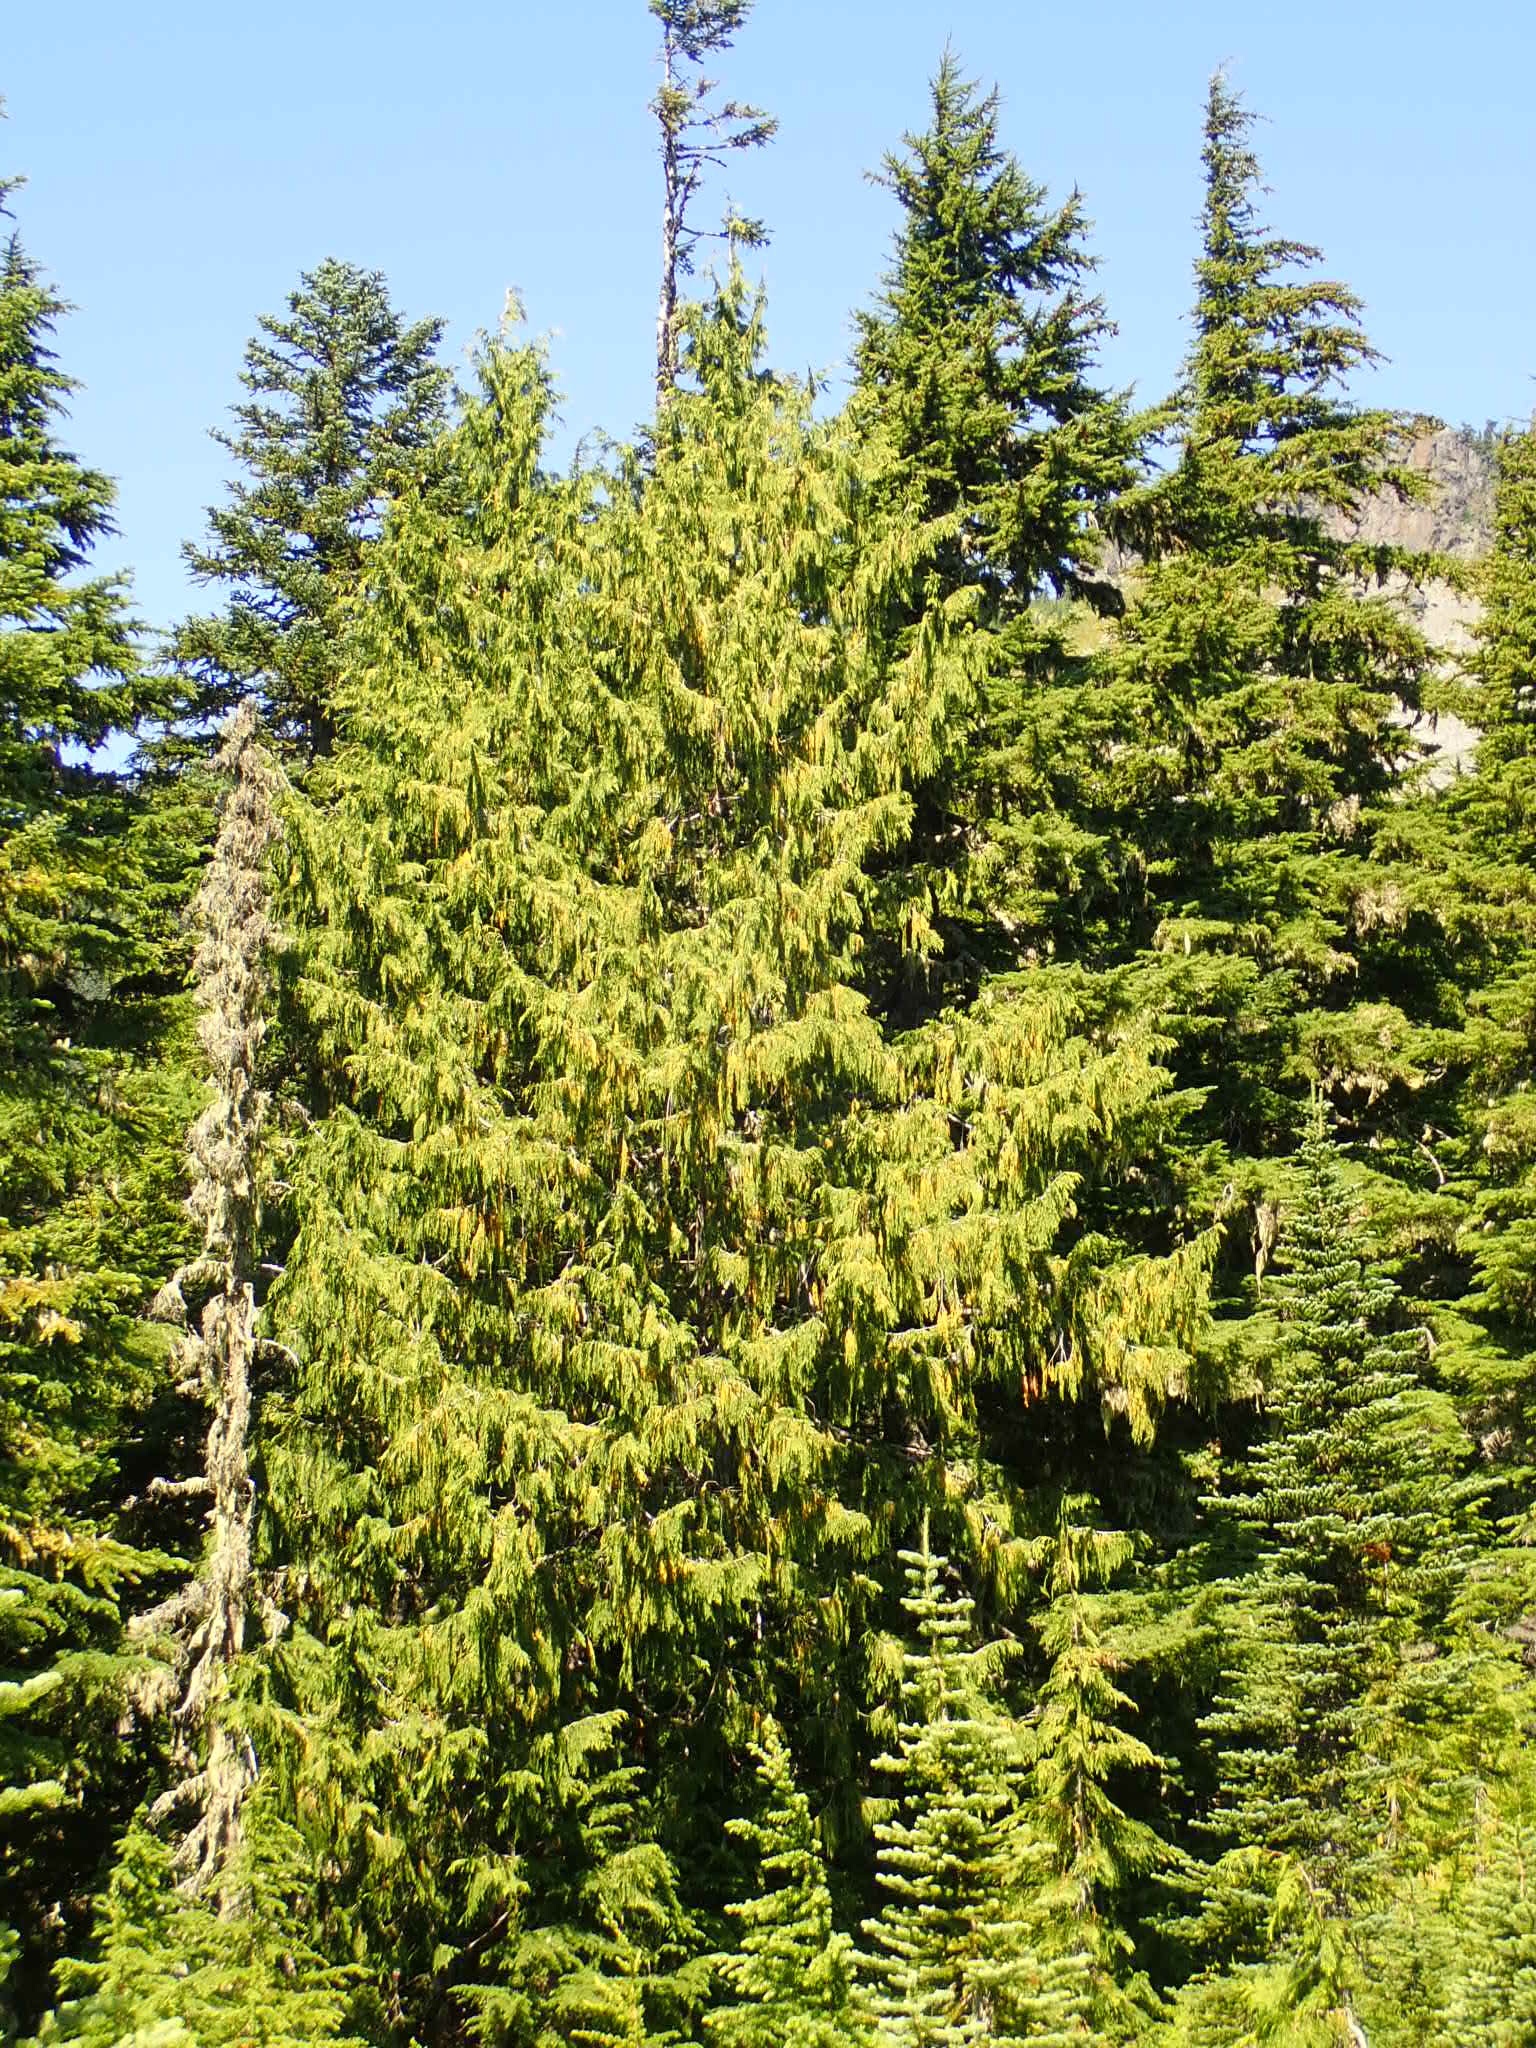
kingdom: Plantae
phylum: Tracheophyta
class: Pinopsida
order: Pinales
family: Cupressaceae
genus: Xanthocyparis
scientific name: Xanthocyparis nootkatensis
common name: Nootka cypress
